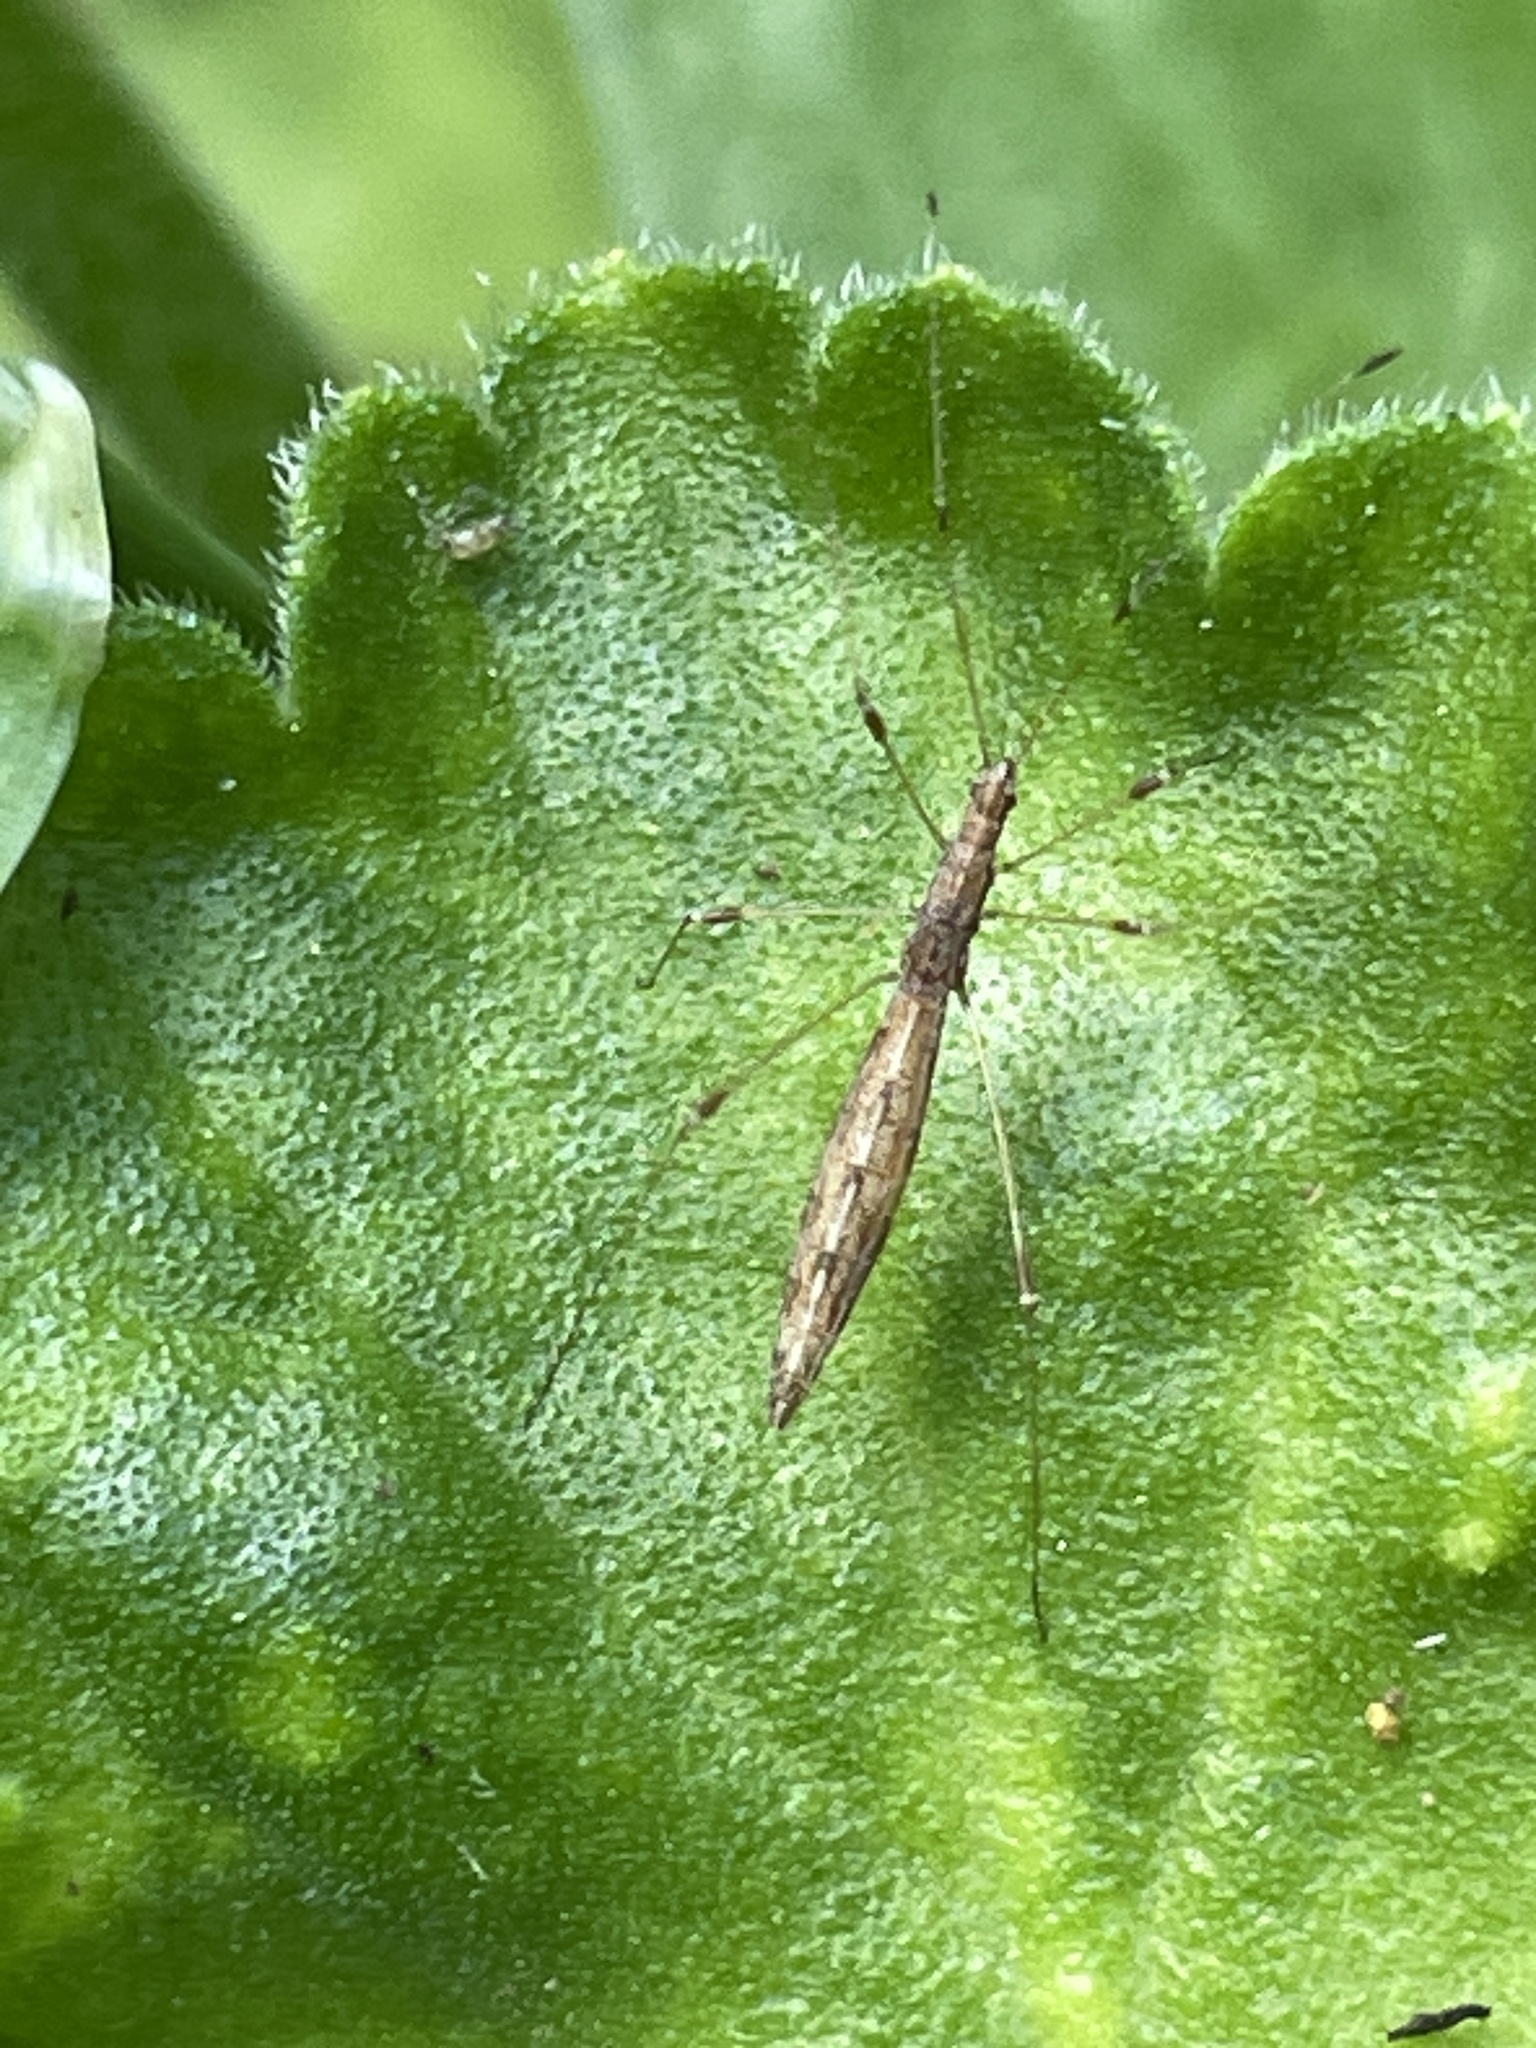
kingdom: Animalia
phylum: Arthropoda
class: Insecta
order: Hemiptera
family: Berytidae
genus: Chinoneides
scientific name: Chinoneides tasmaniensis
